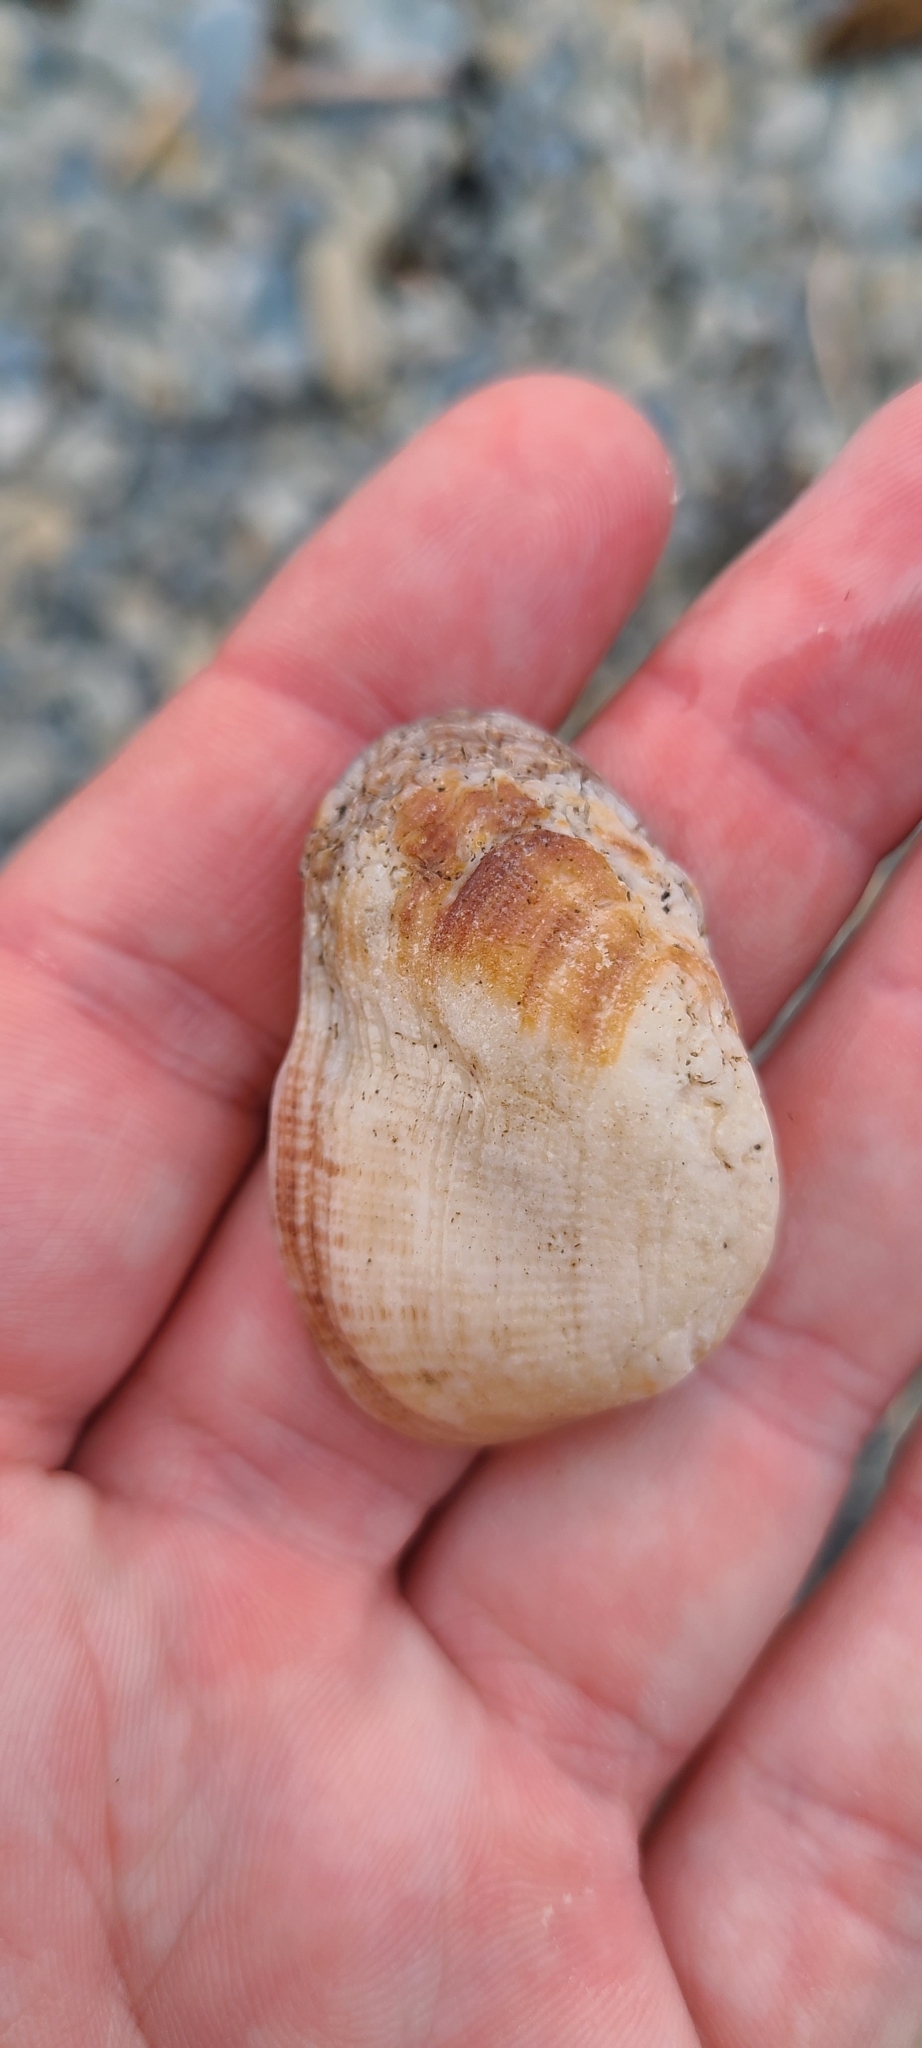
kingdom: Animalia
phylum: Mollusca
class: Bivalvia
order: Arcida
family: Arcidae
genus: Barbatia
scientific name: Barbatia novaezealandiae
